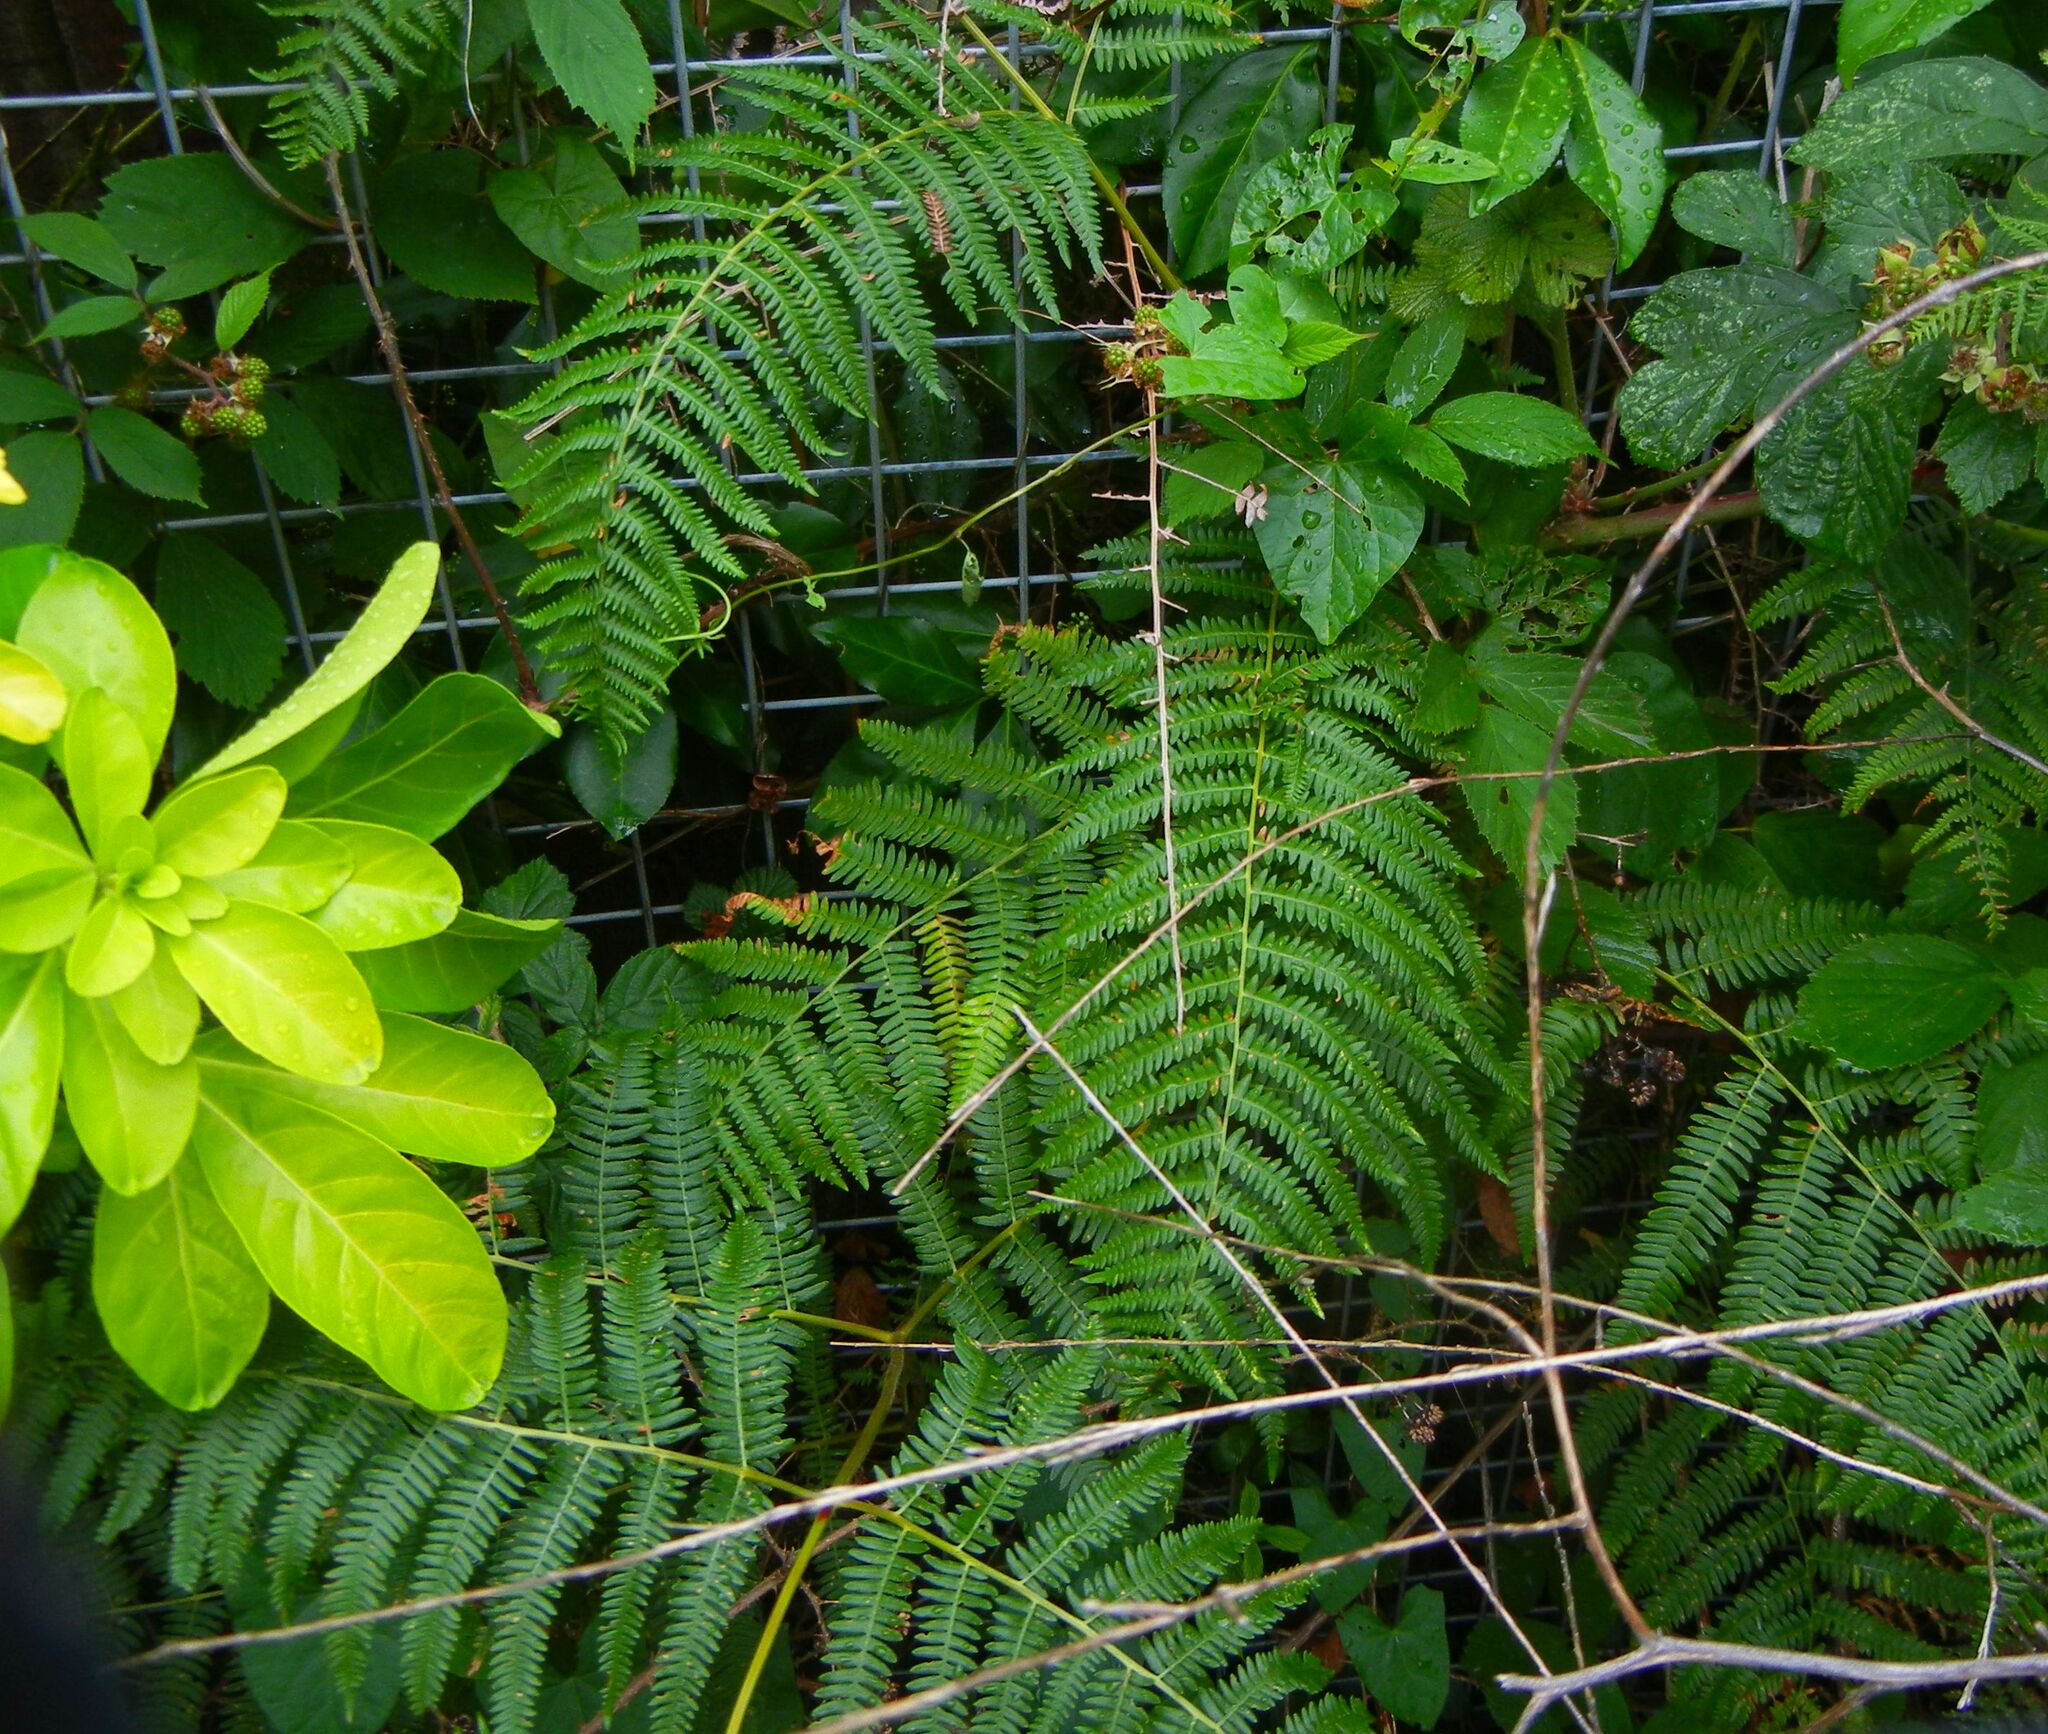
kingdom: Plantae
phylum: Tracheophyta
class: Polypodiopsida
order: Polypodiales
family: Dennstaedtiaceae
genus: Pteridium
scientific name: Pteridium aquilinum
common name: Bracken
